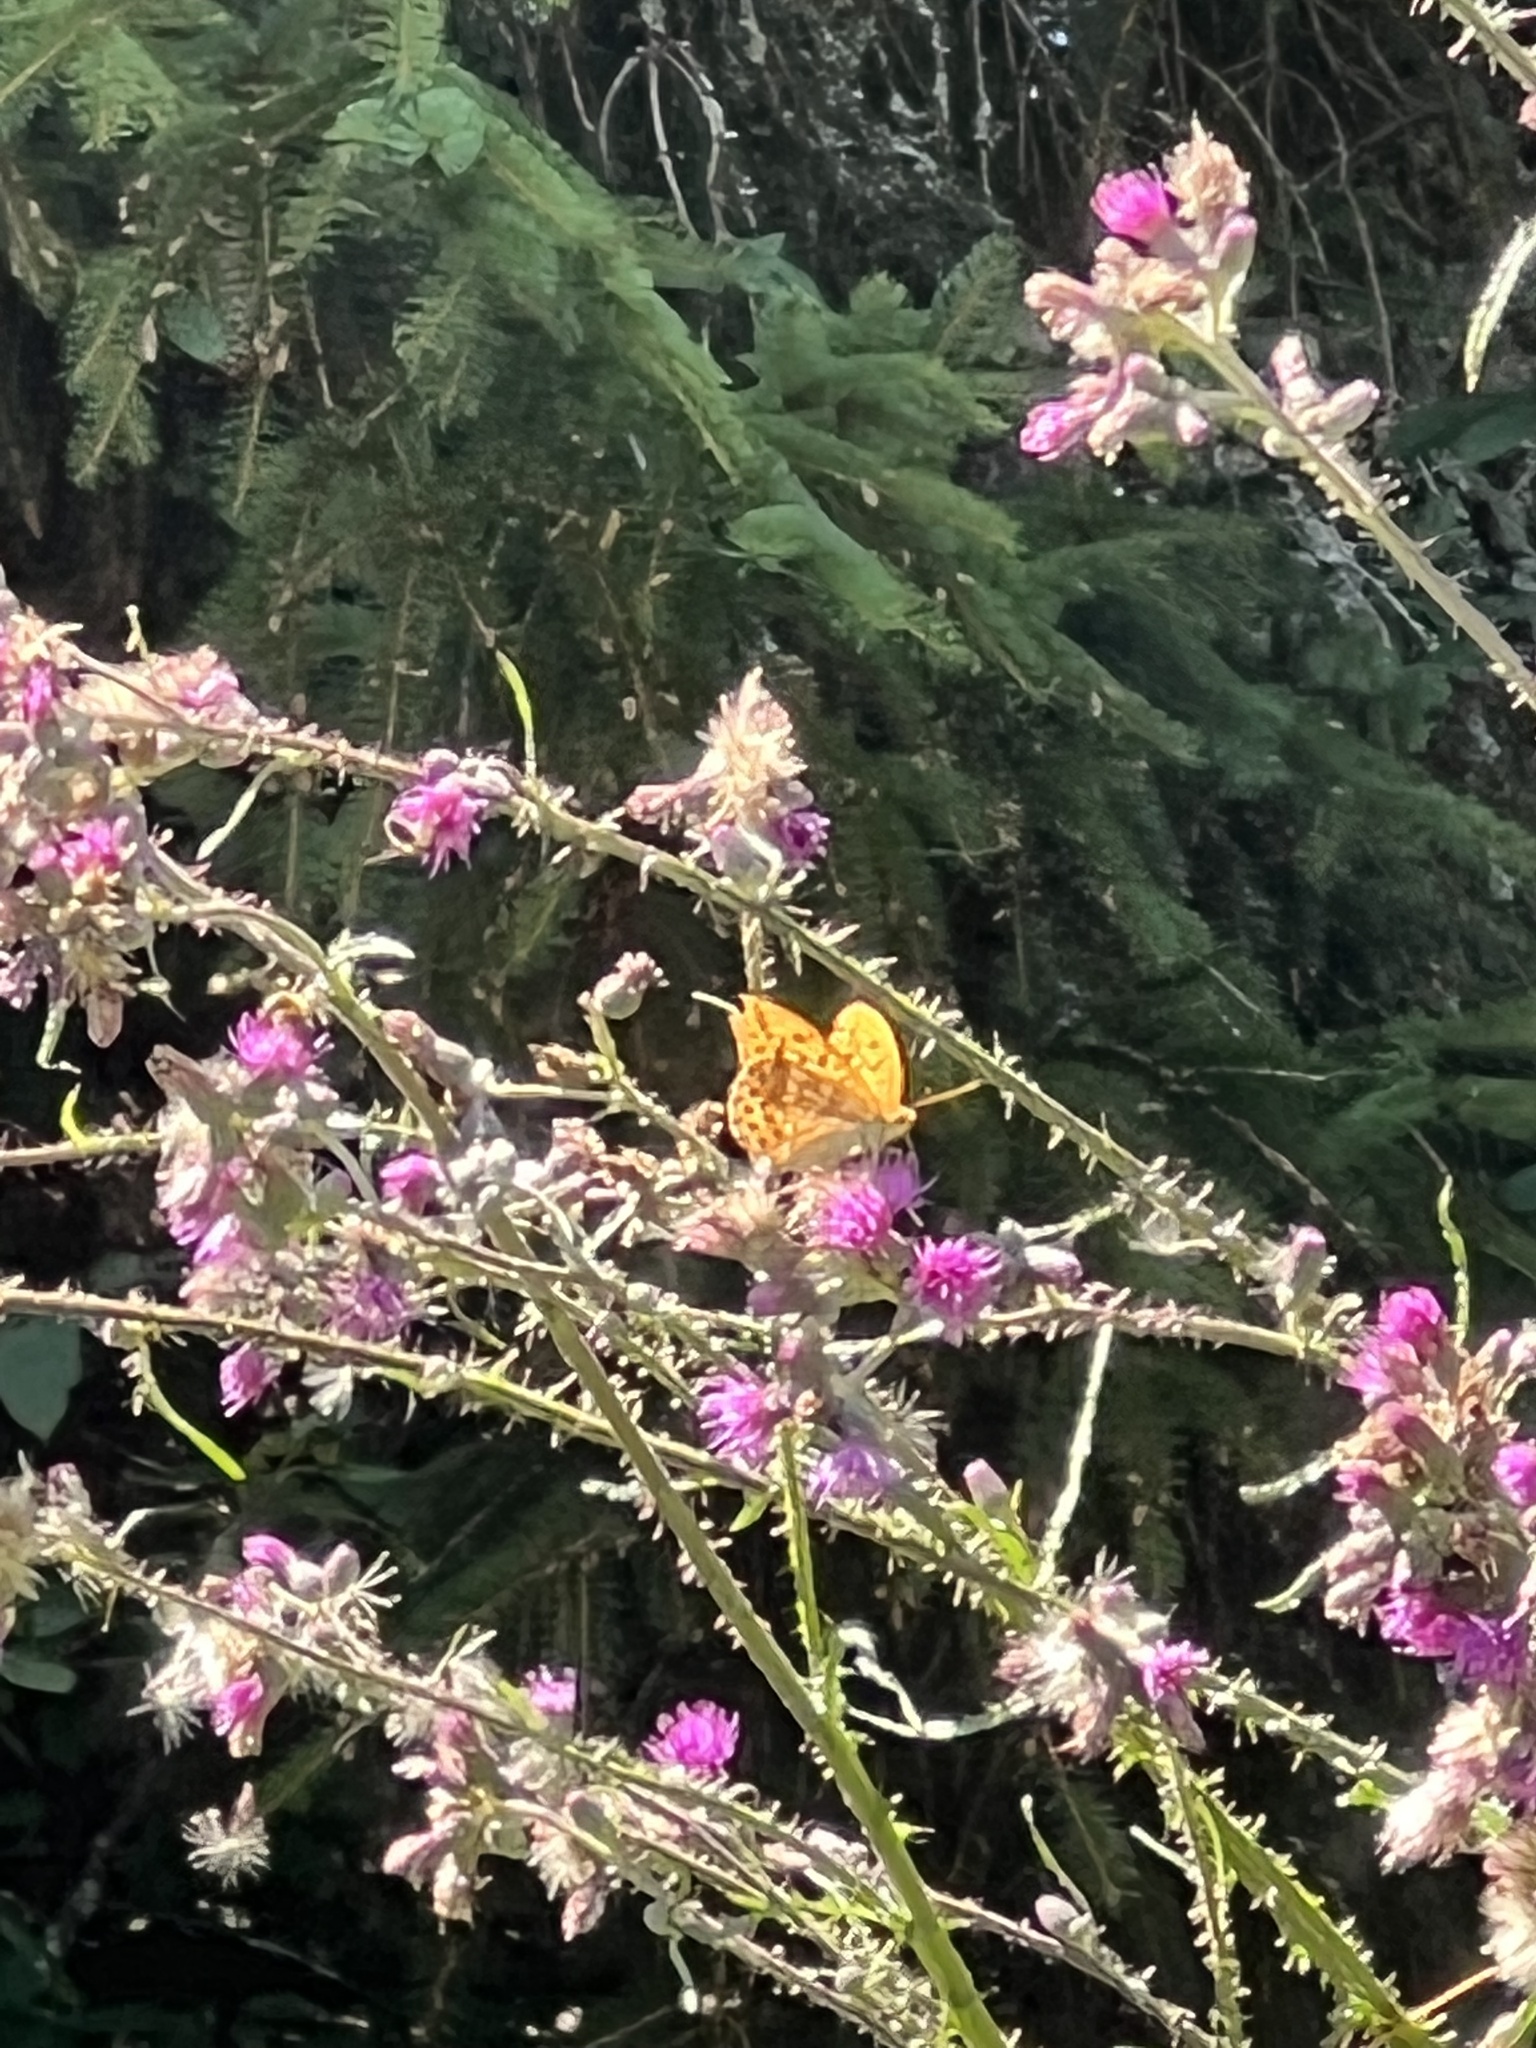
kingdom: Animalia
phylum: Arthropoda
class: Insecta
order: Lepidoptera
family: Nymphalidae
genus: Argynnis
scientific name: Argynnis paphia
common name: Silver-washed fritillary
